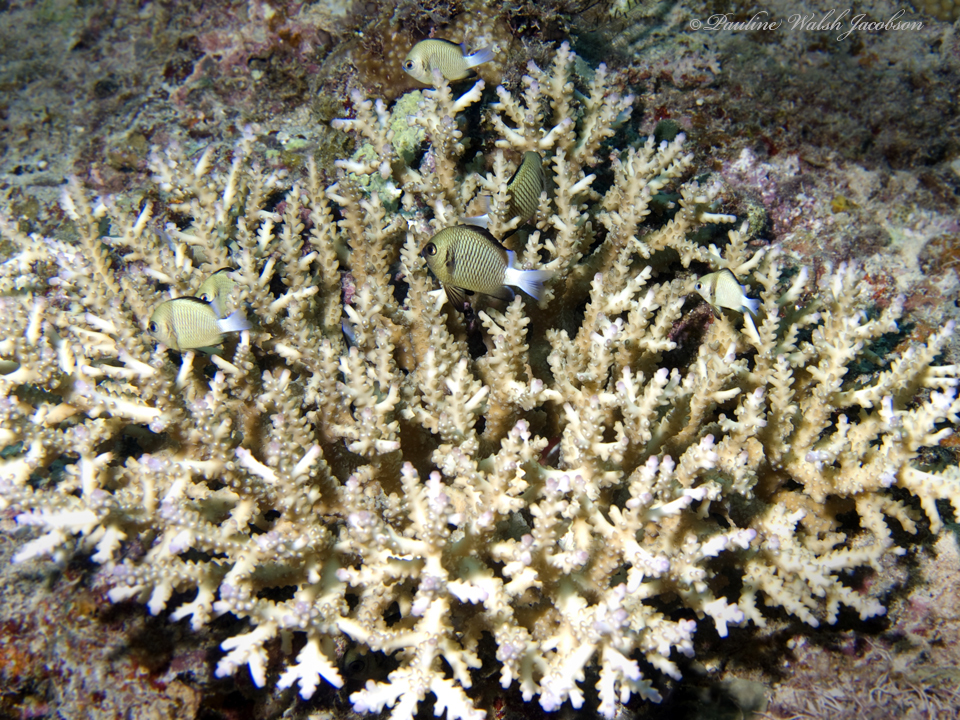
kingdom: Animalia
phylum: Chordata
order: Perciformes
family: Pomacentridae
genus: Dascyllus
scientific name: Dascyllus reticulatus
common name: Reticulated dascyllus
